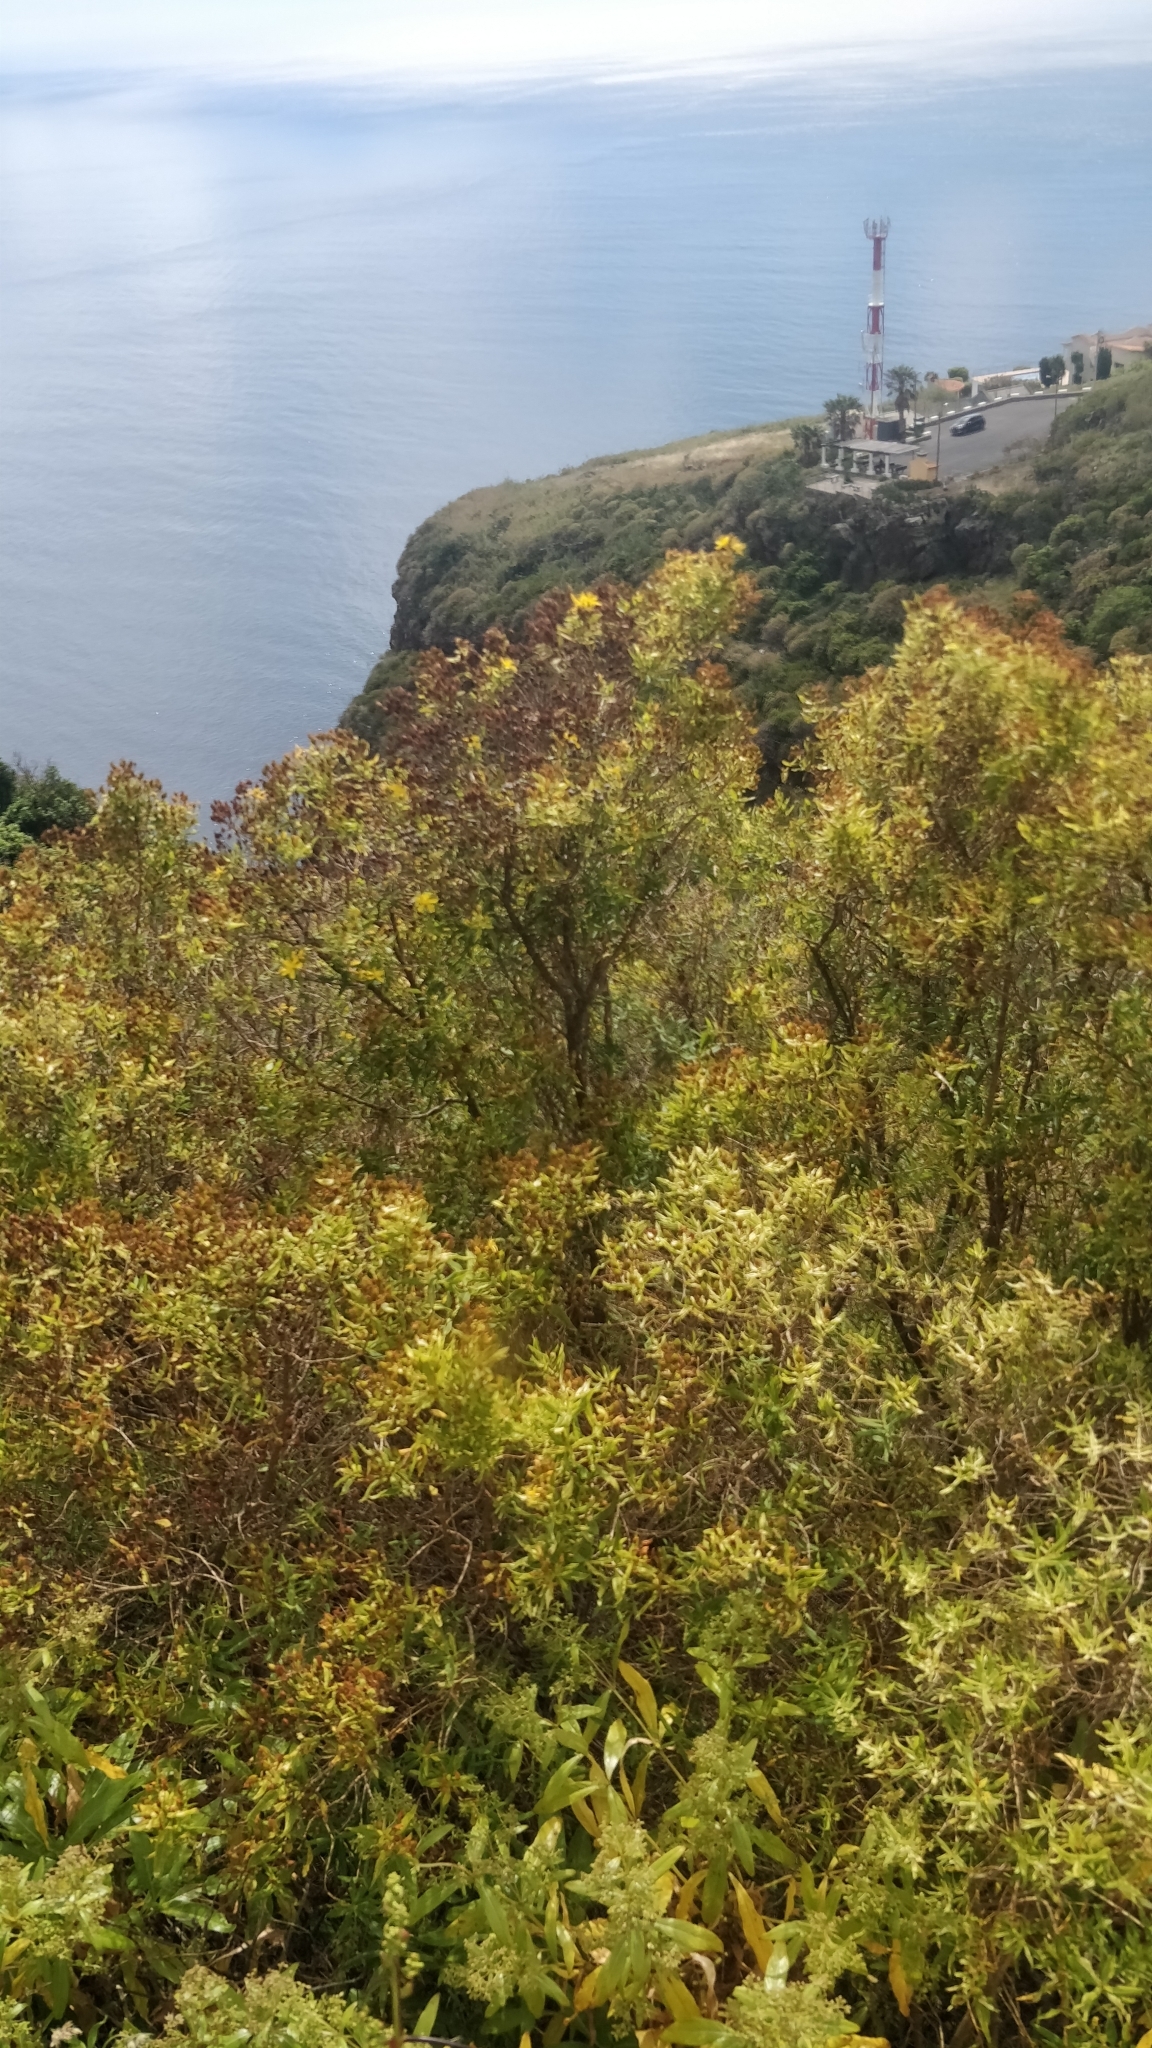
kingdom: Plantae
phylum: Tracheophyta
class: Magnoliopsida
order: Malpighiales
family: Hypericaceae
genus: Hypericum
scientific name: Hypericum canariense
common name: Canary island st. johnswort
